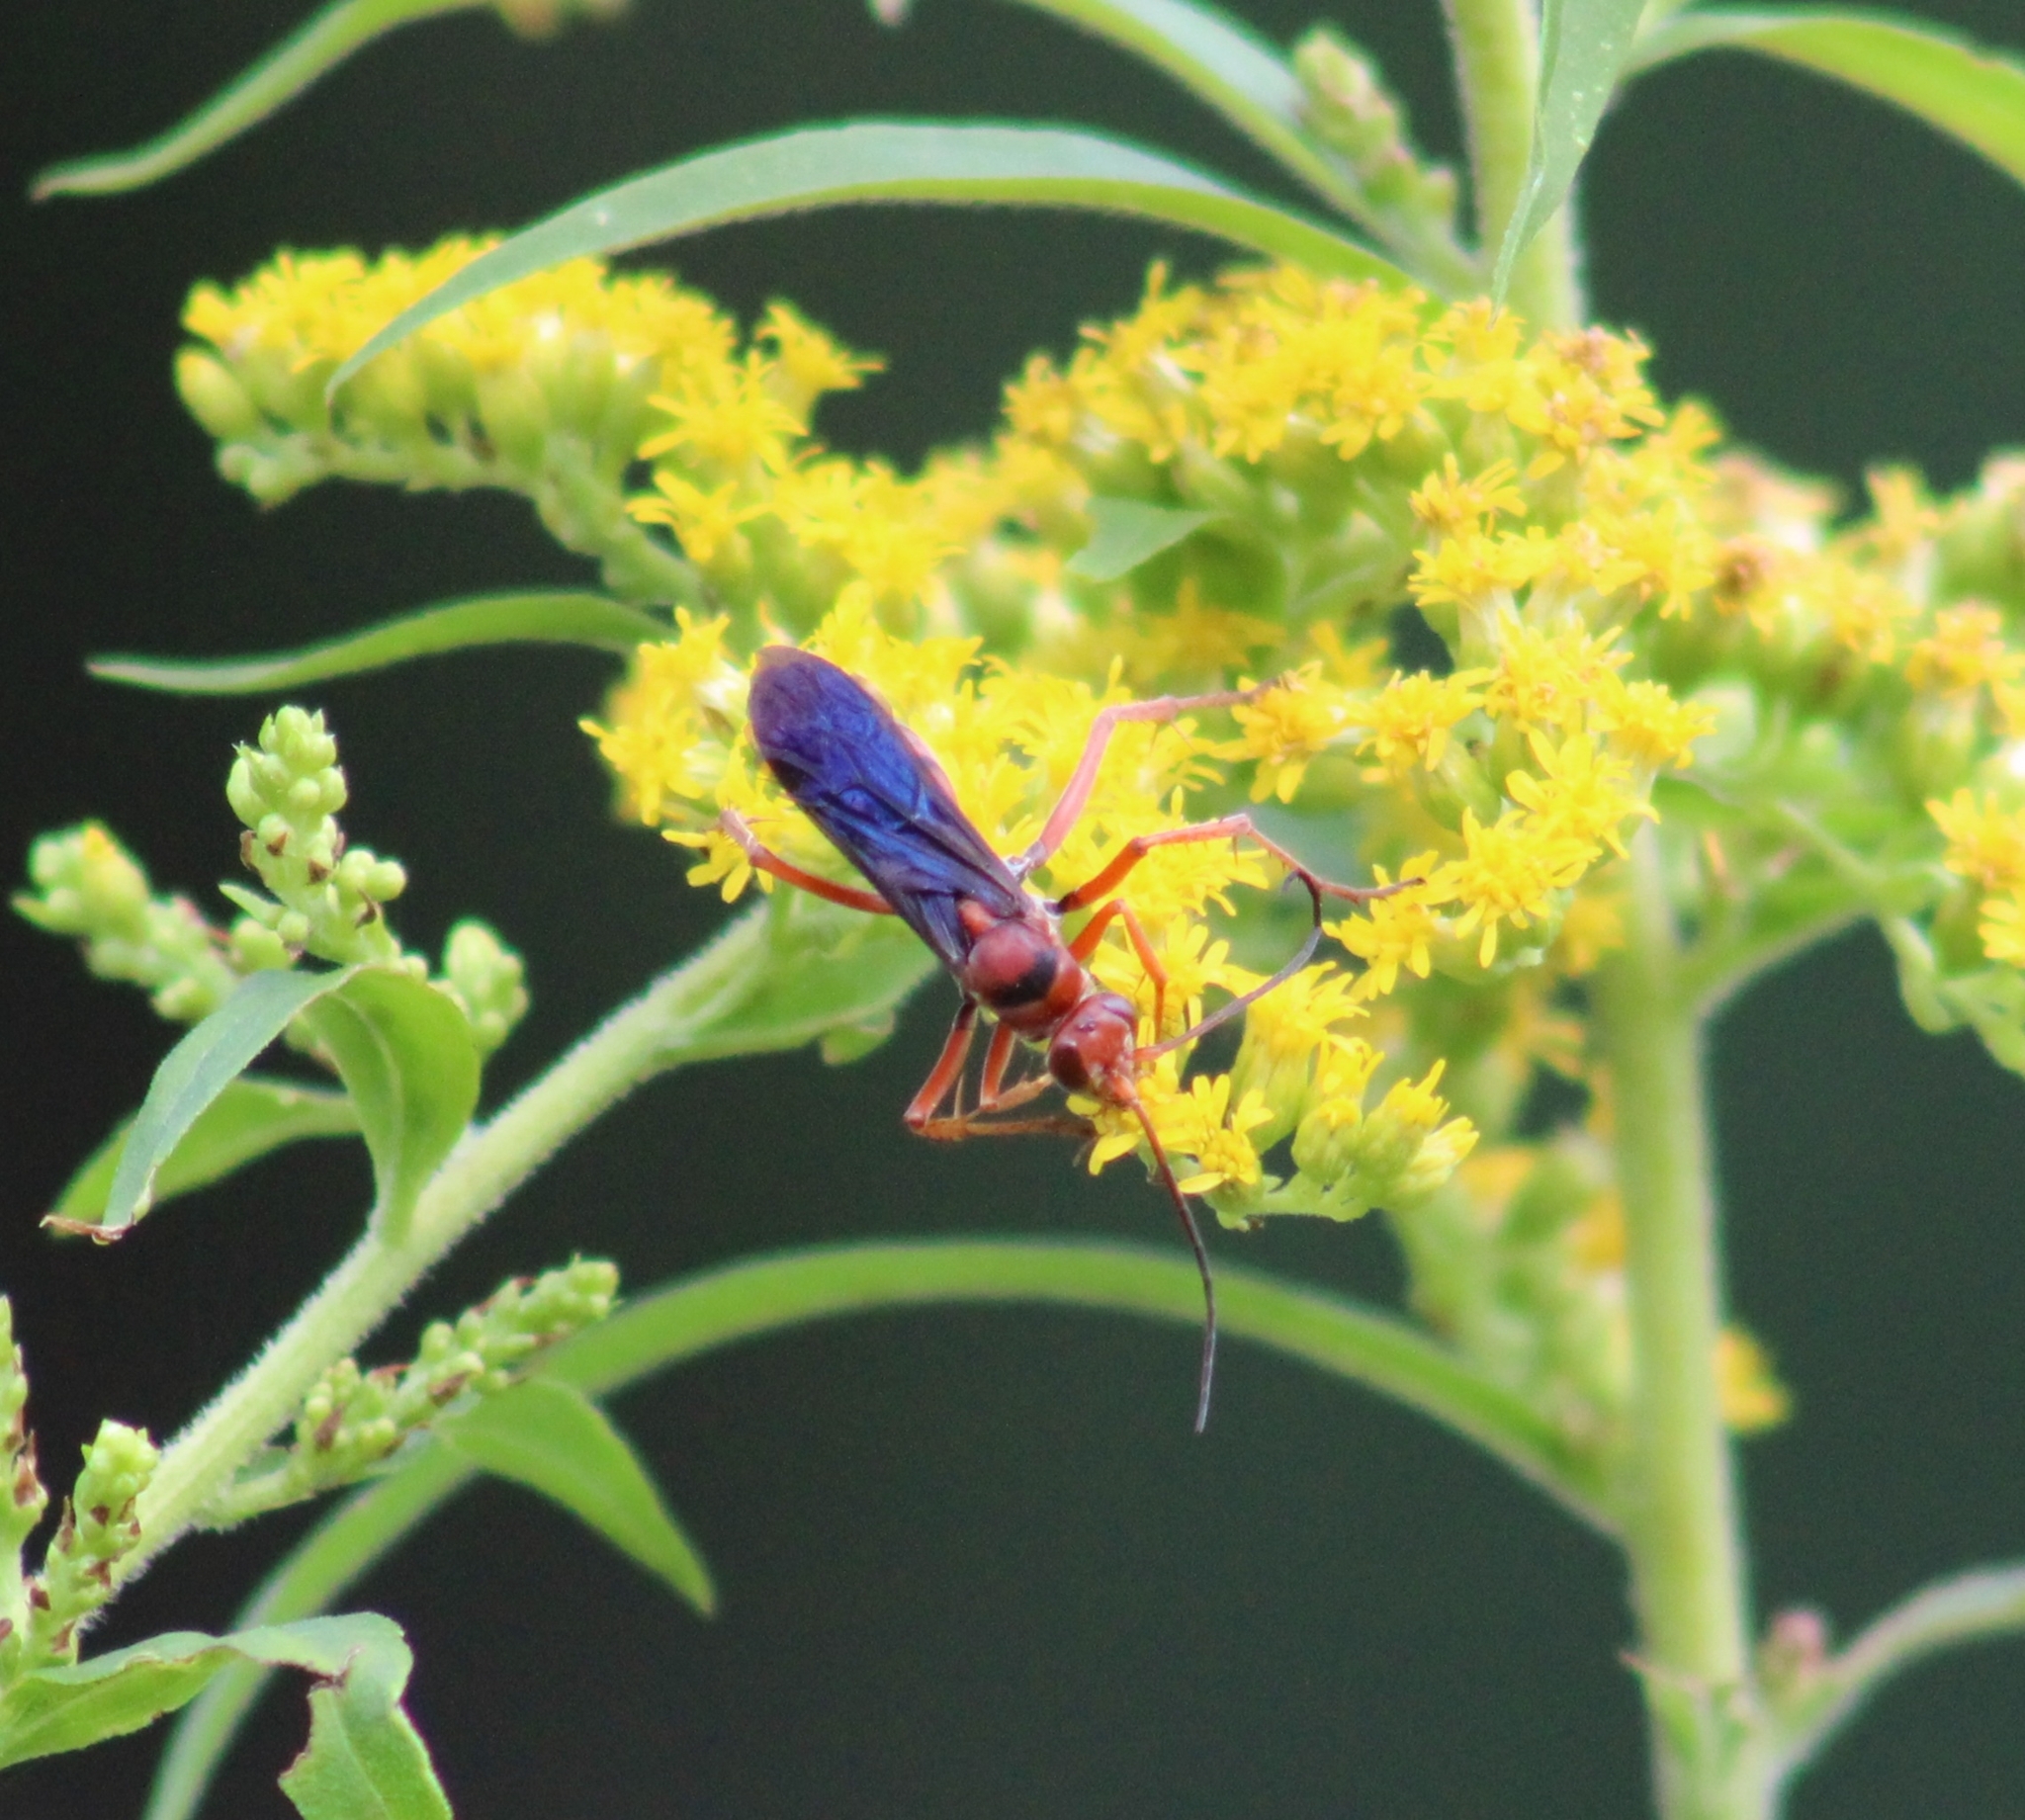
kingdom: Animalia
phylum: Arthropoda
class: Insecta
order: Hymenoptera
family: Pompilidae
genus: Tachypompilus
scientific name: Tachypompilus ferrugineus
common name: Rusty spider wasp
